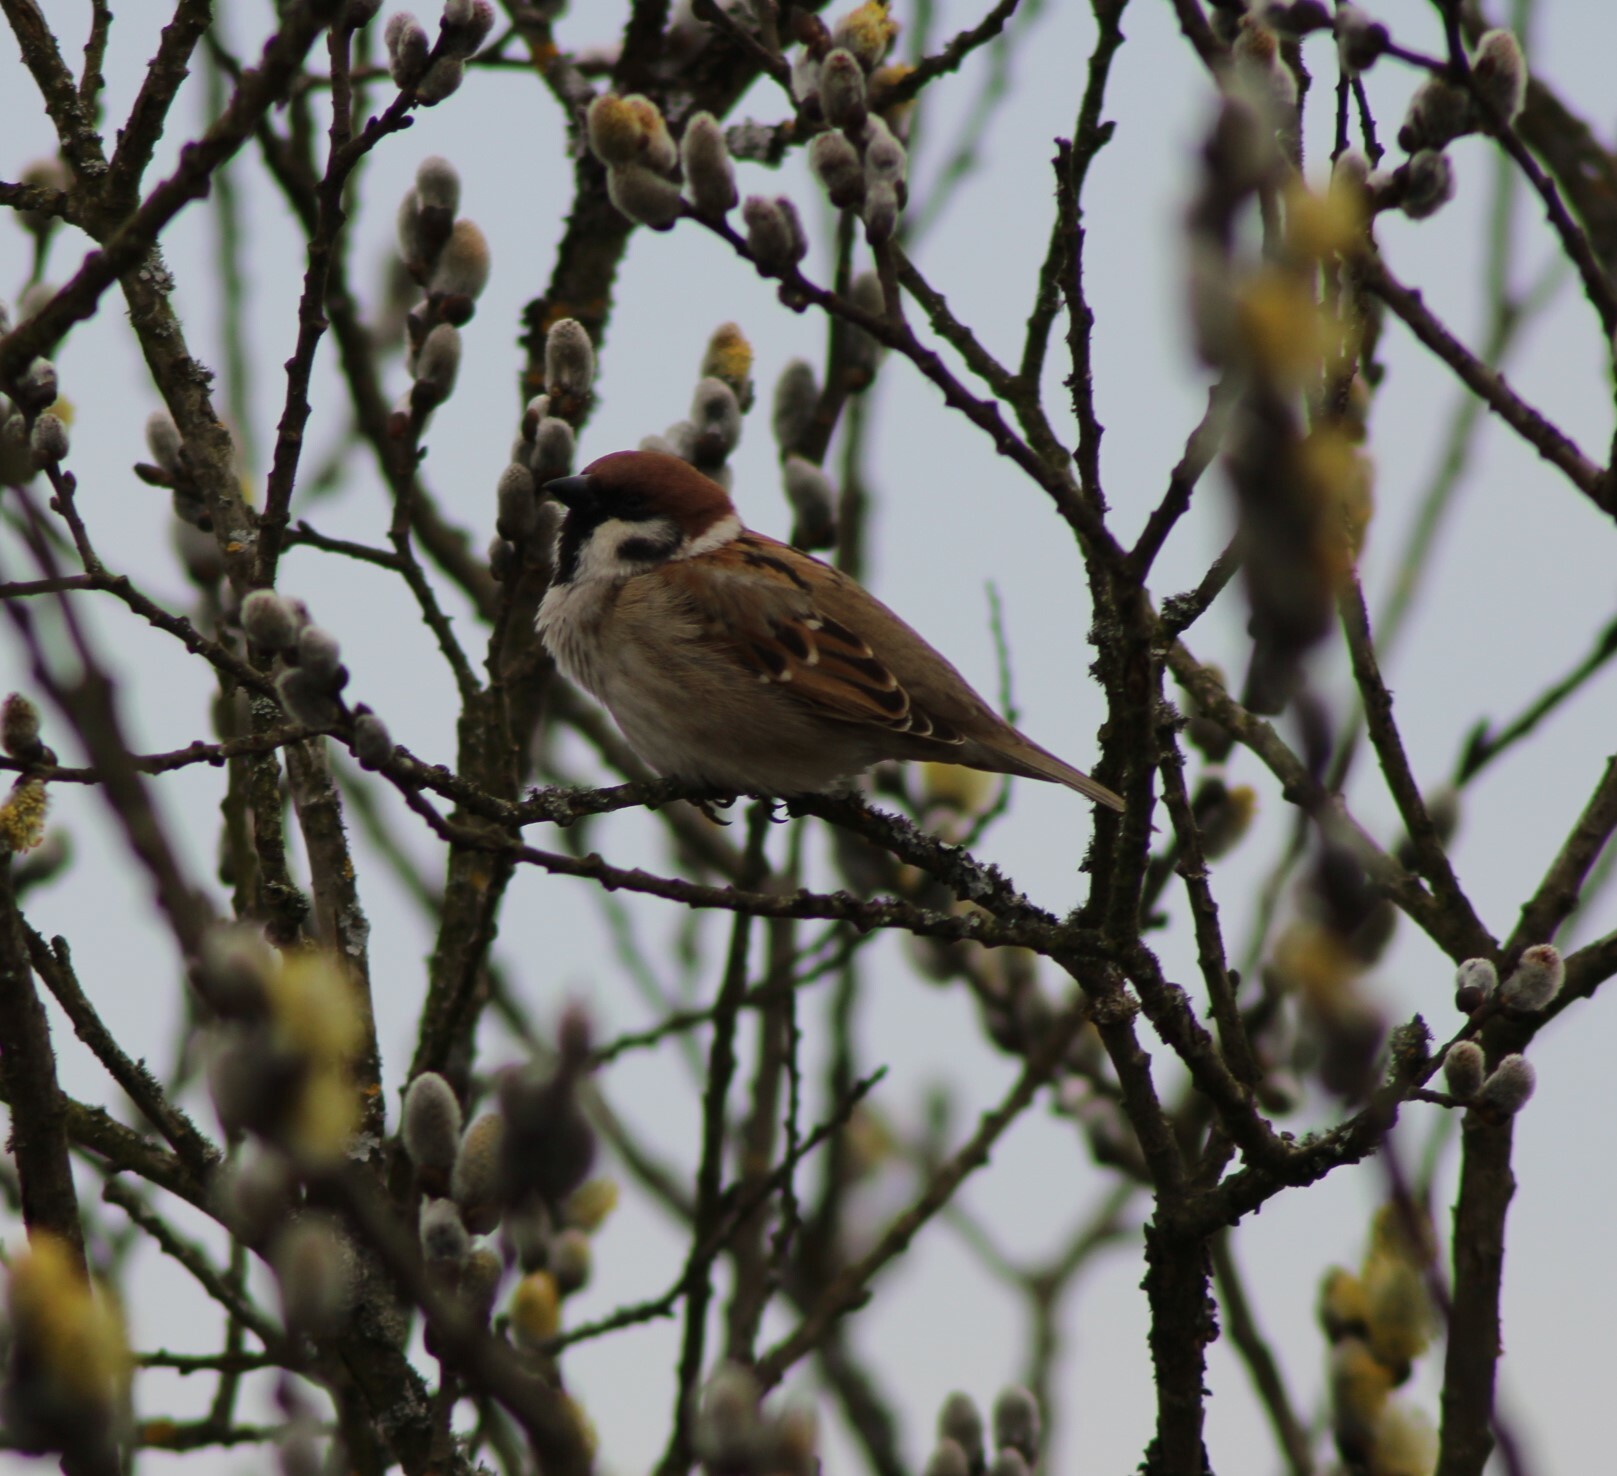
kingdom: Animalia
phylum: Chordata
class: Aves
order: Passeriformes
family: Passeridae
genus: Passer
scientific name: Passer montanus
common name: Eurasian tree sparrow
